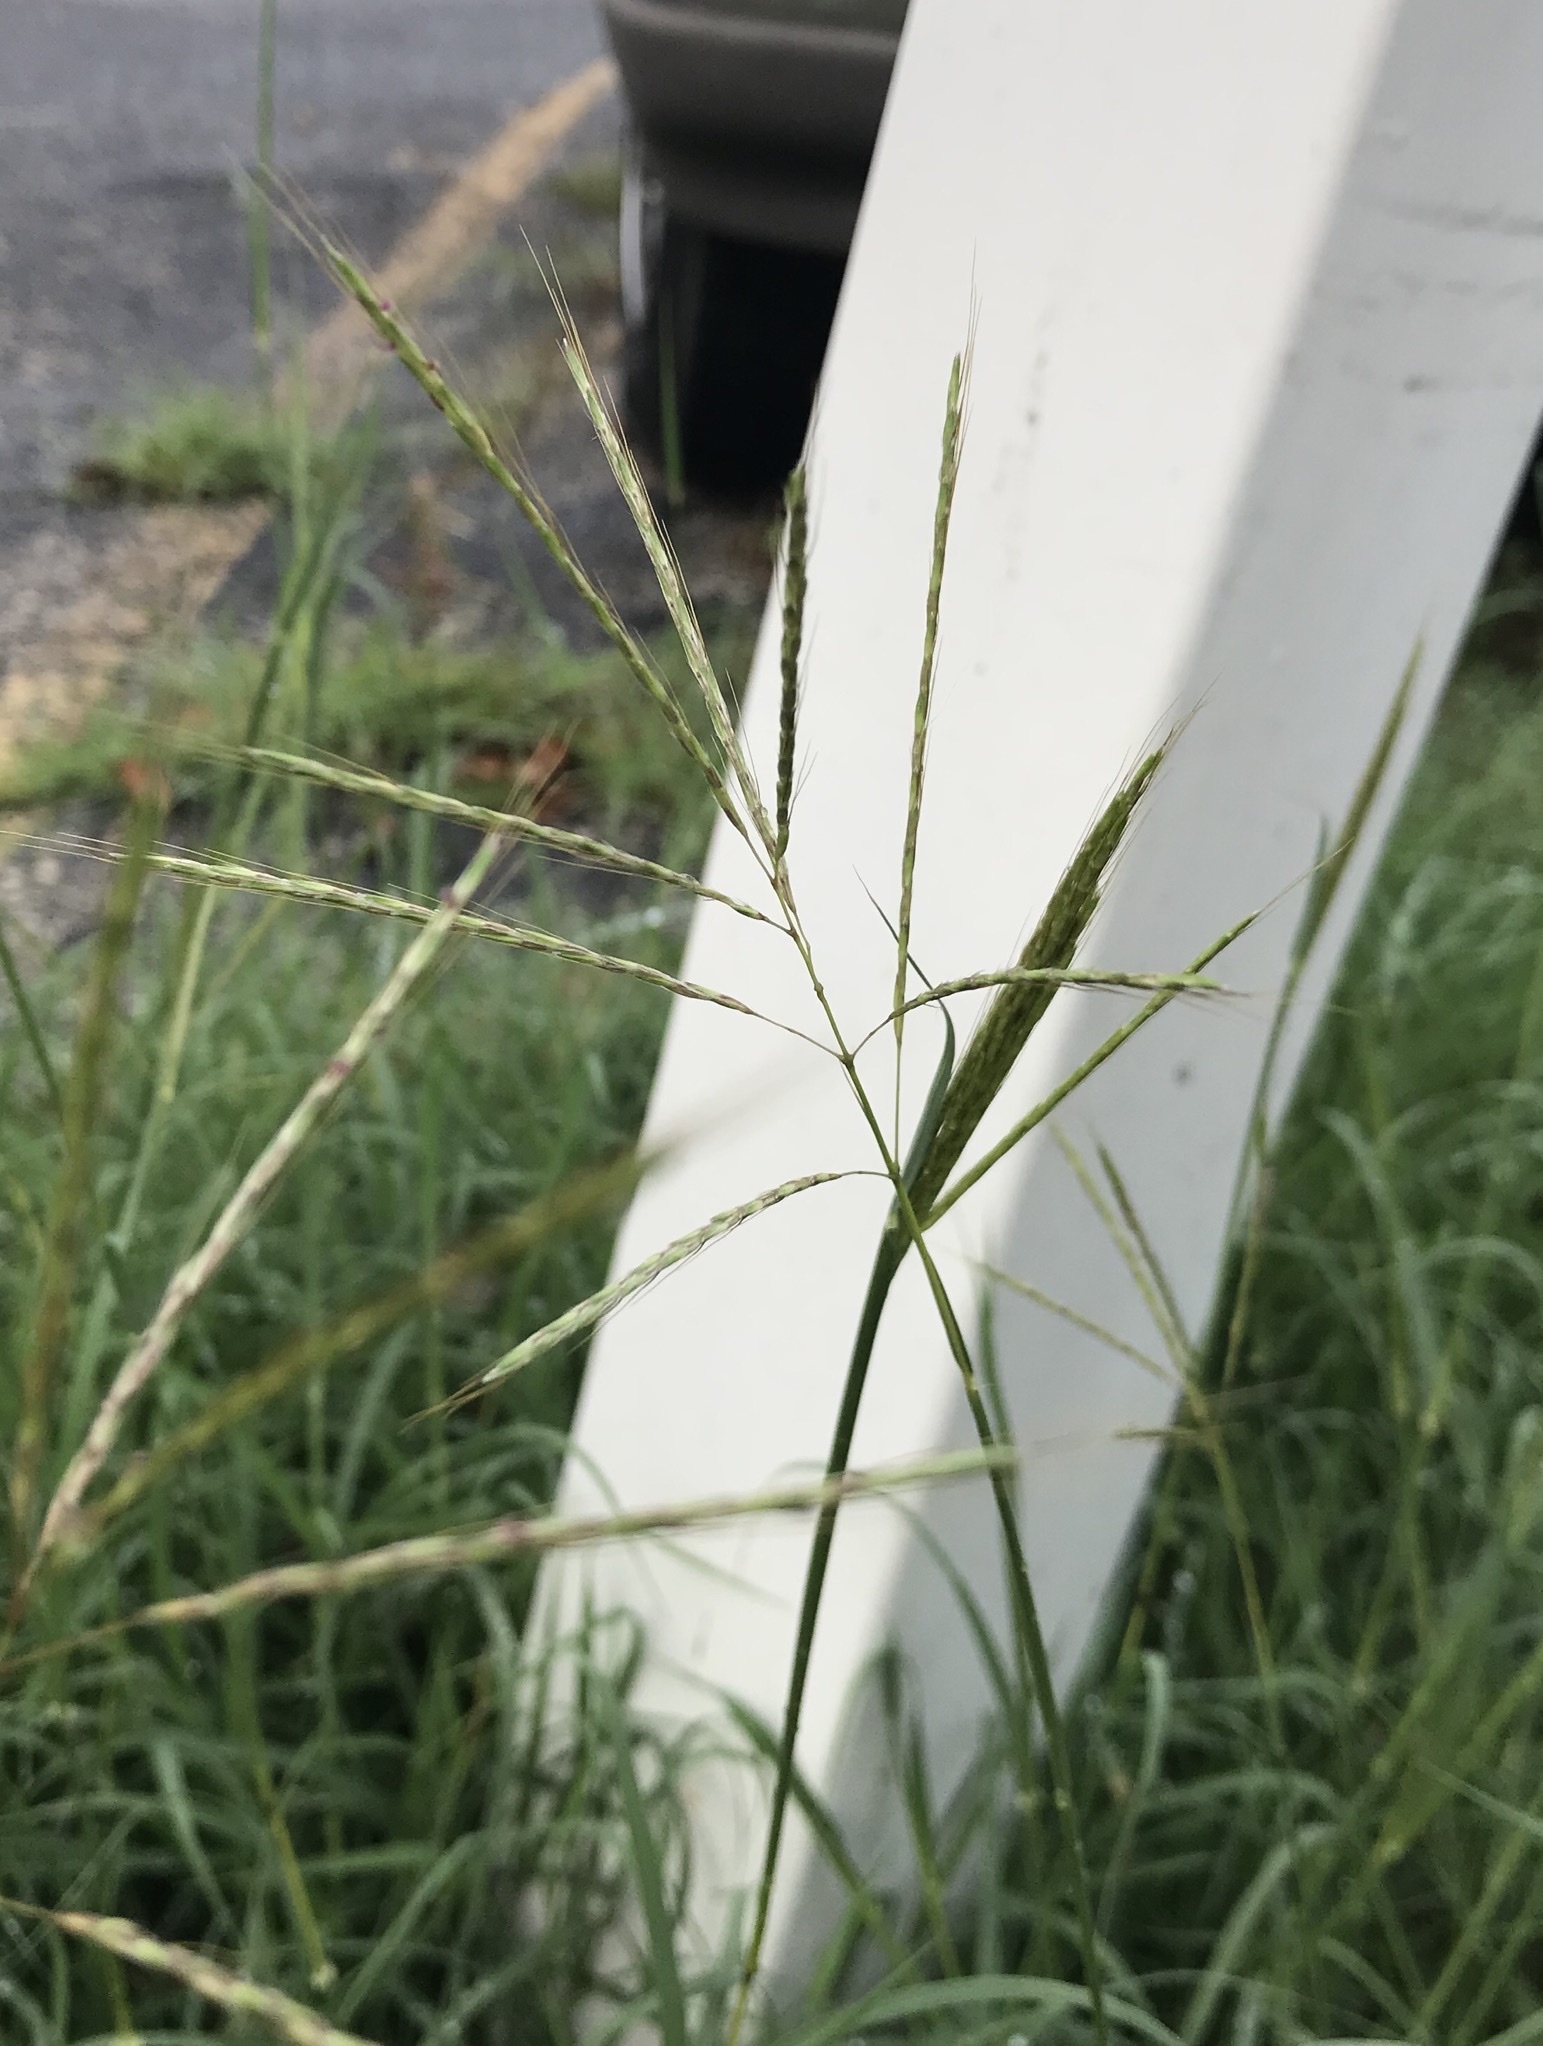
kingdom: Plantae
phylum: Tracheophyta
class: Liliopsida
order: Poales
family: Poaceae
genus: Bothriochloa
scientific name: Bothriochloa ischaemum
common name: Yellow bluestem
